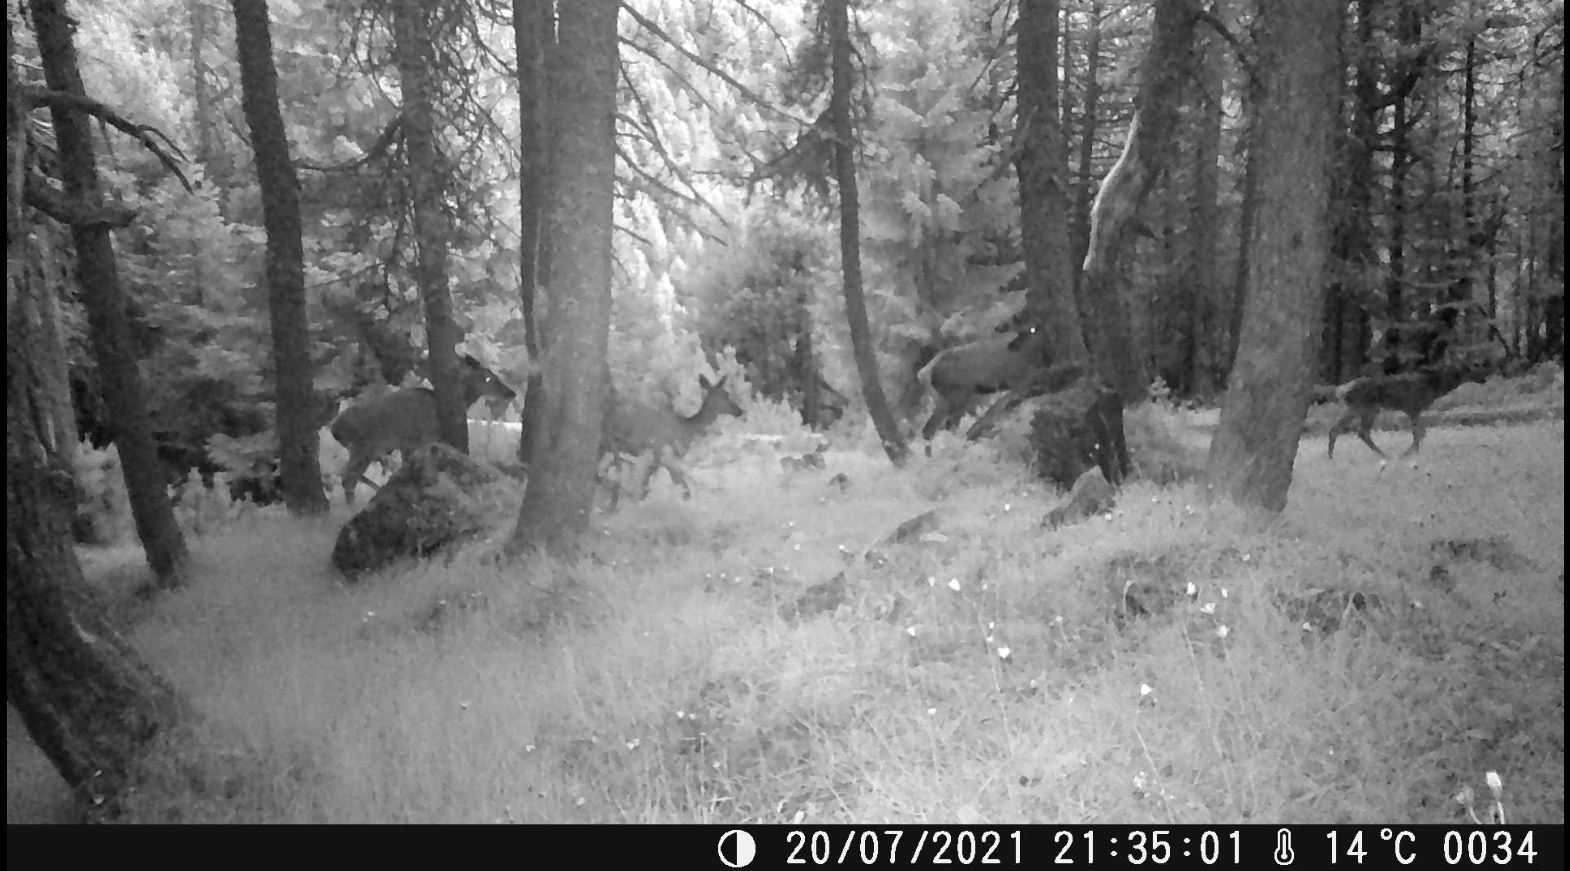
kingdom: Animalia
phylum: Chordata
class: Mammalia
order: Artiodactyla
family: Cervidae
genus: Cervus
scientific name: Cervus elaphus
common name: Red deer
